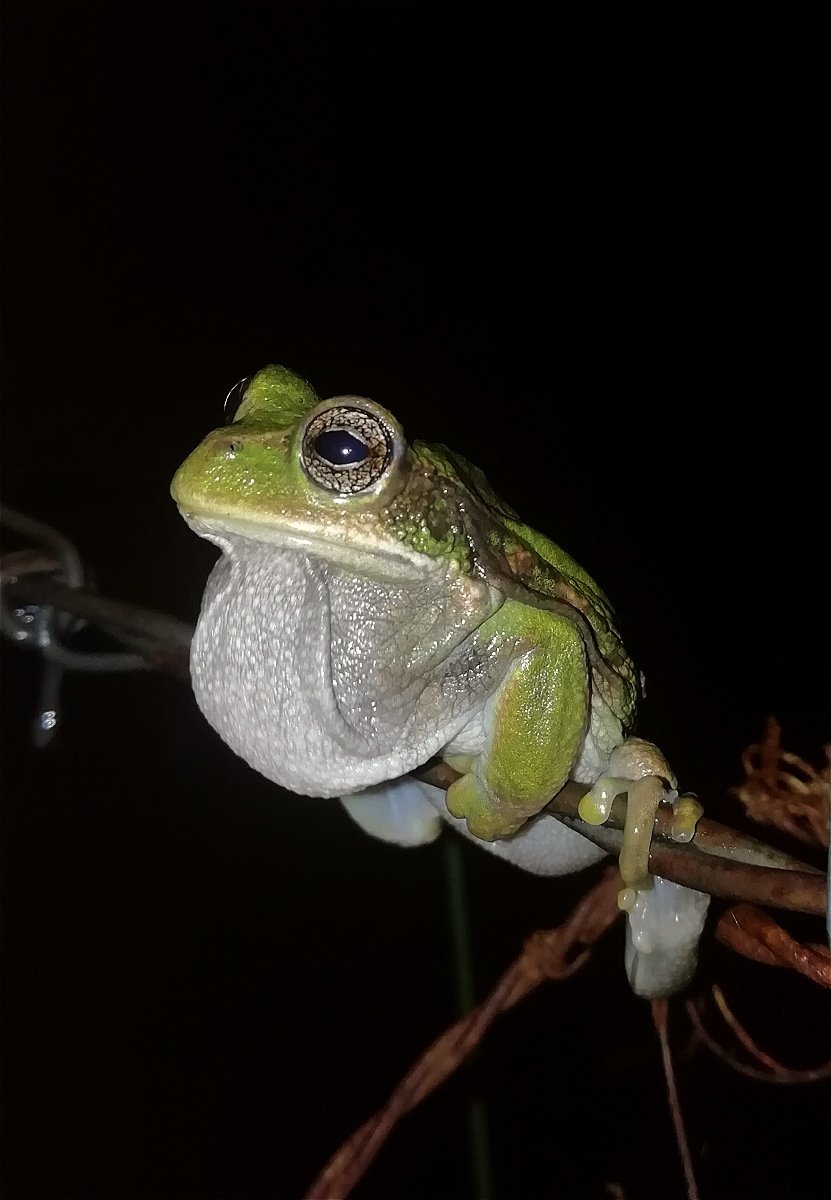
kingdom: Animalia
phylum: Chordata
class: Amphibia
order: Anura
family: Hemiphractidae
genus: Gastrotheca
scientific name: Gastrotheca cuencana
